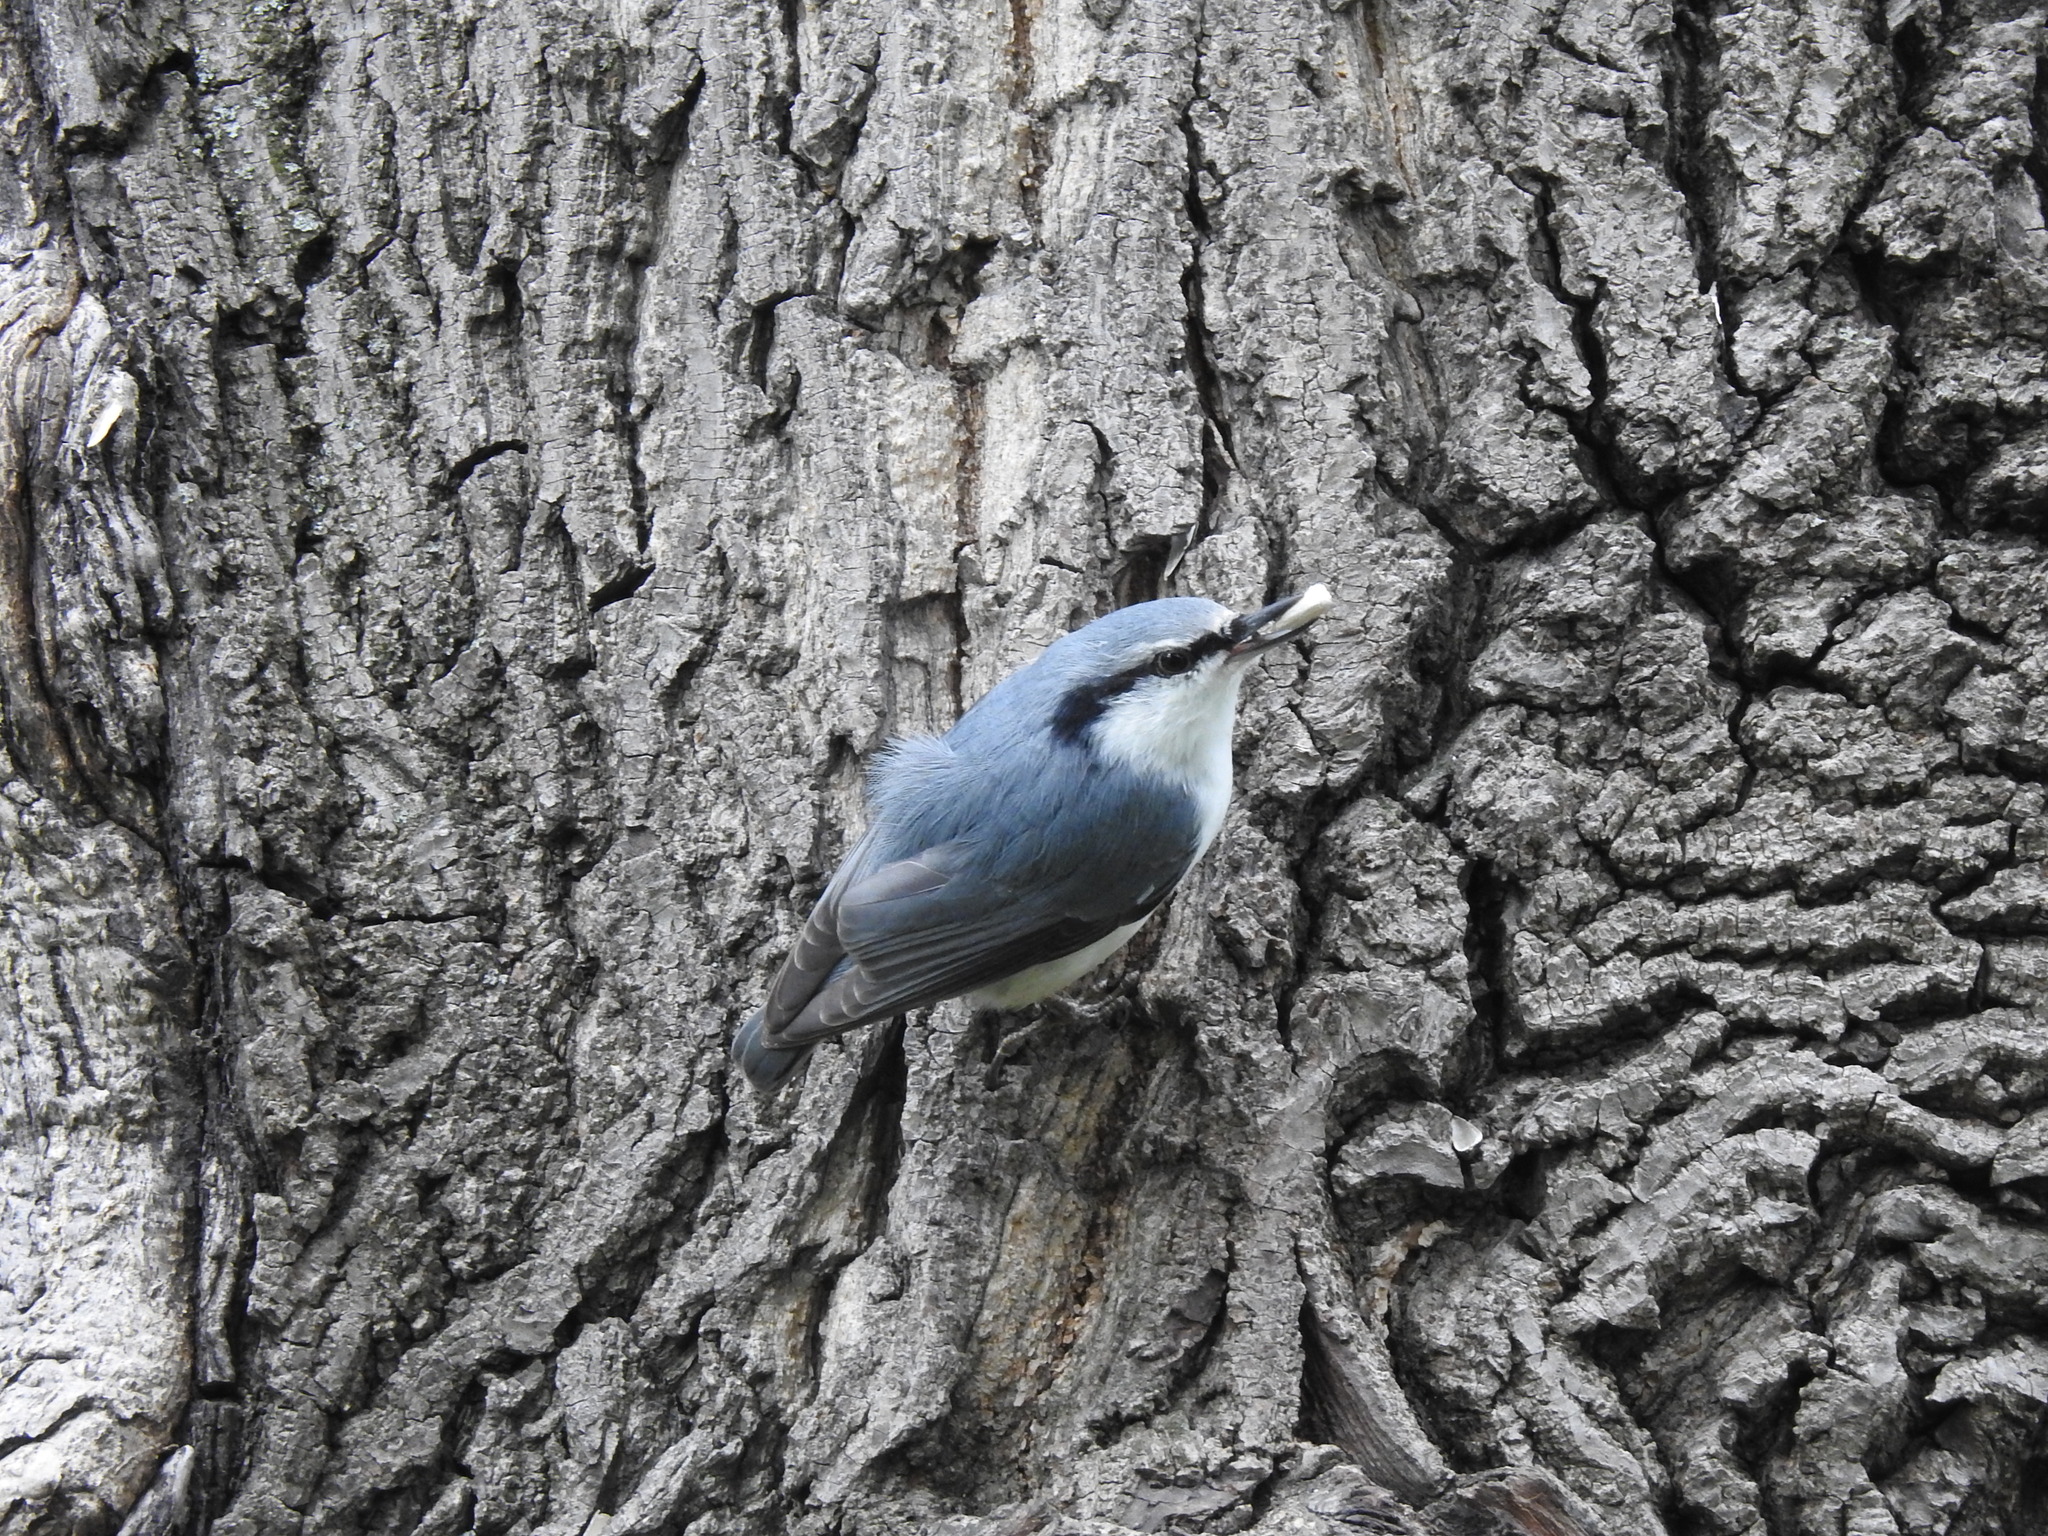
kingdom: Animalia
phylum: Chordata
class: Aves
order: Passeriformes
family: Sittidae
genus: Sitta
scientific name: Sitta europaea
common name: Eurasian nuthatch
